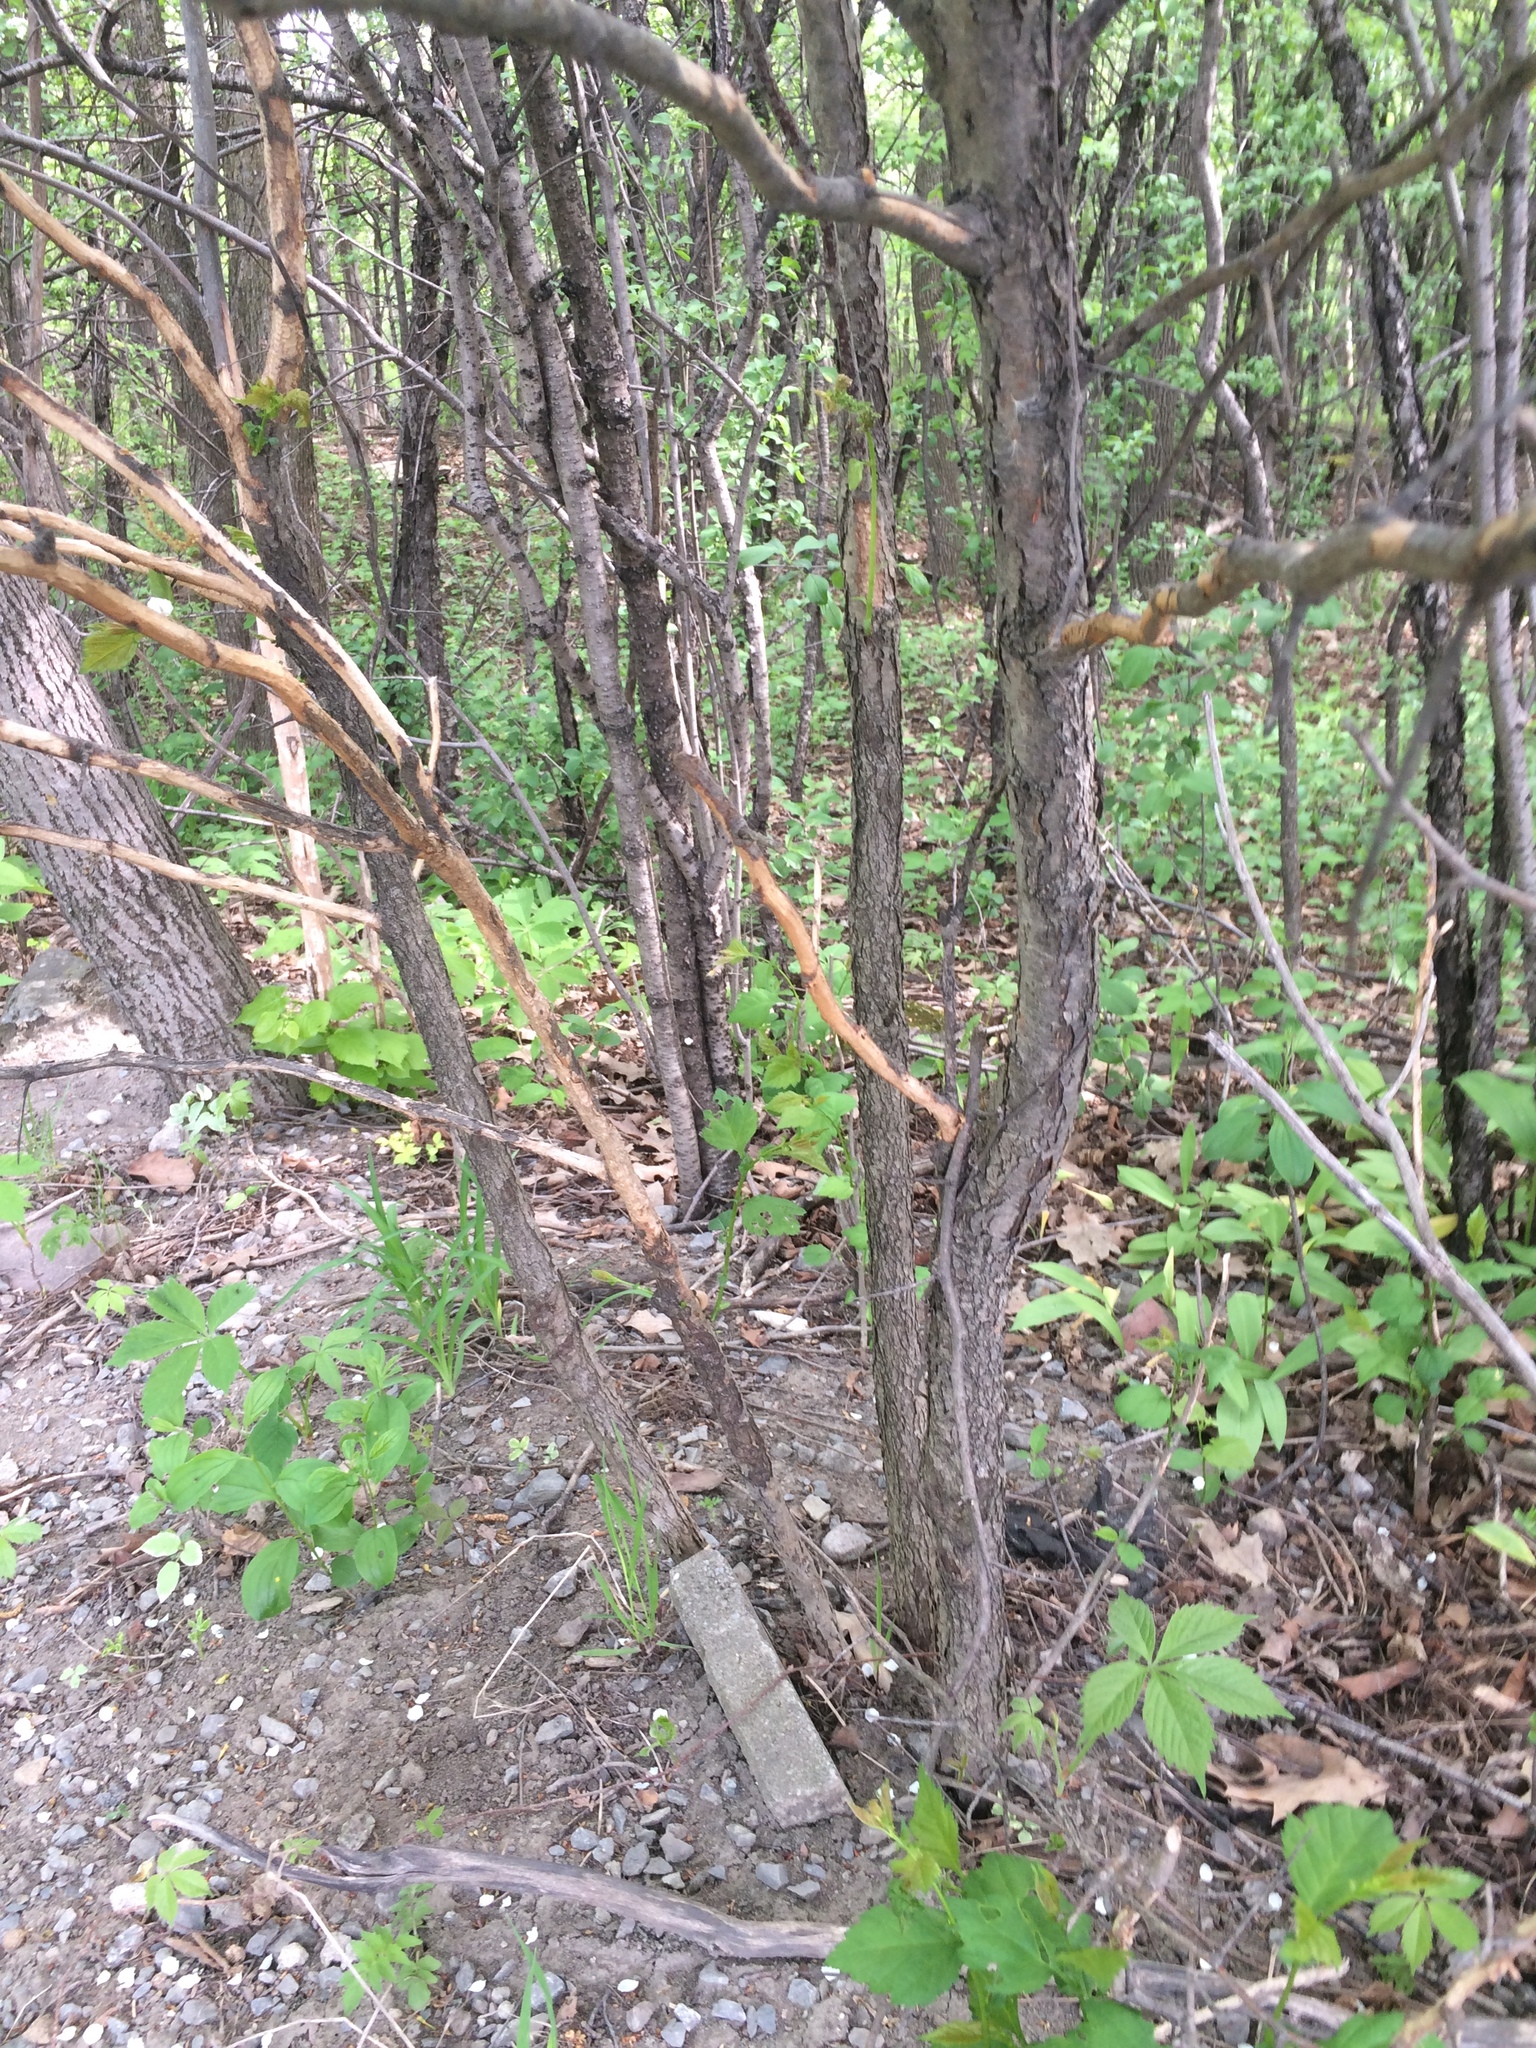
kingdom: Plantae
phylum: Tracheophyta
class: Magnoliopsida
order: Rosales
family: Rosaceae
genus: Crataegus
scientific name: Crataegus scabrida
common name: Rough hawthorn
